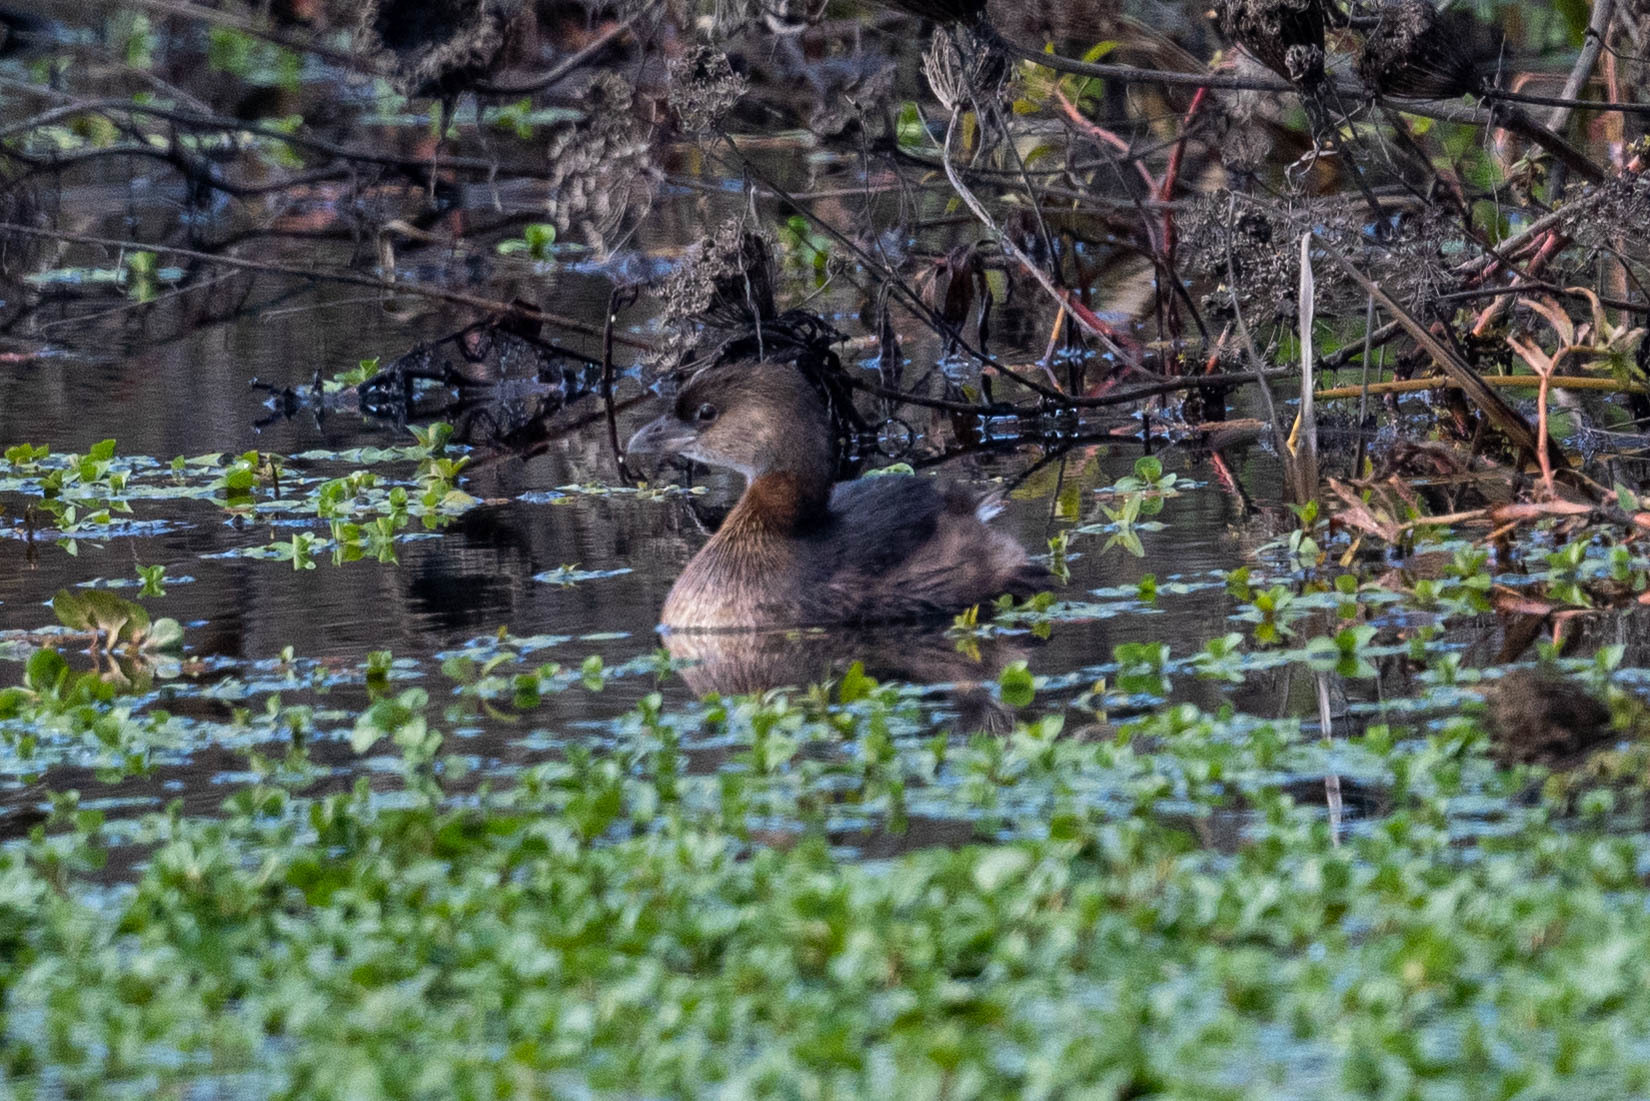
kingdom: Animalia
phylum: Chordata
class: Aves
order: Podicipediformes
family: Podicipedidae
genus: Podilymbus
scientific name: Podilymbus podiceps
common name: Pied-billed grebe
